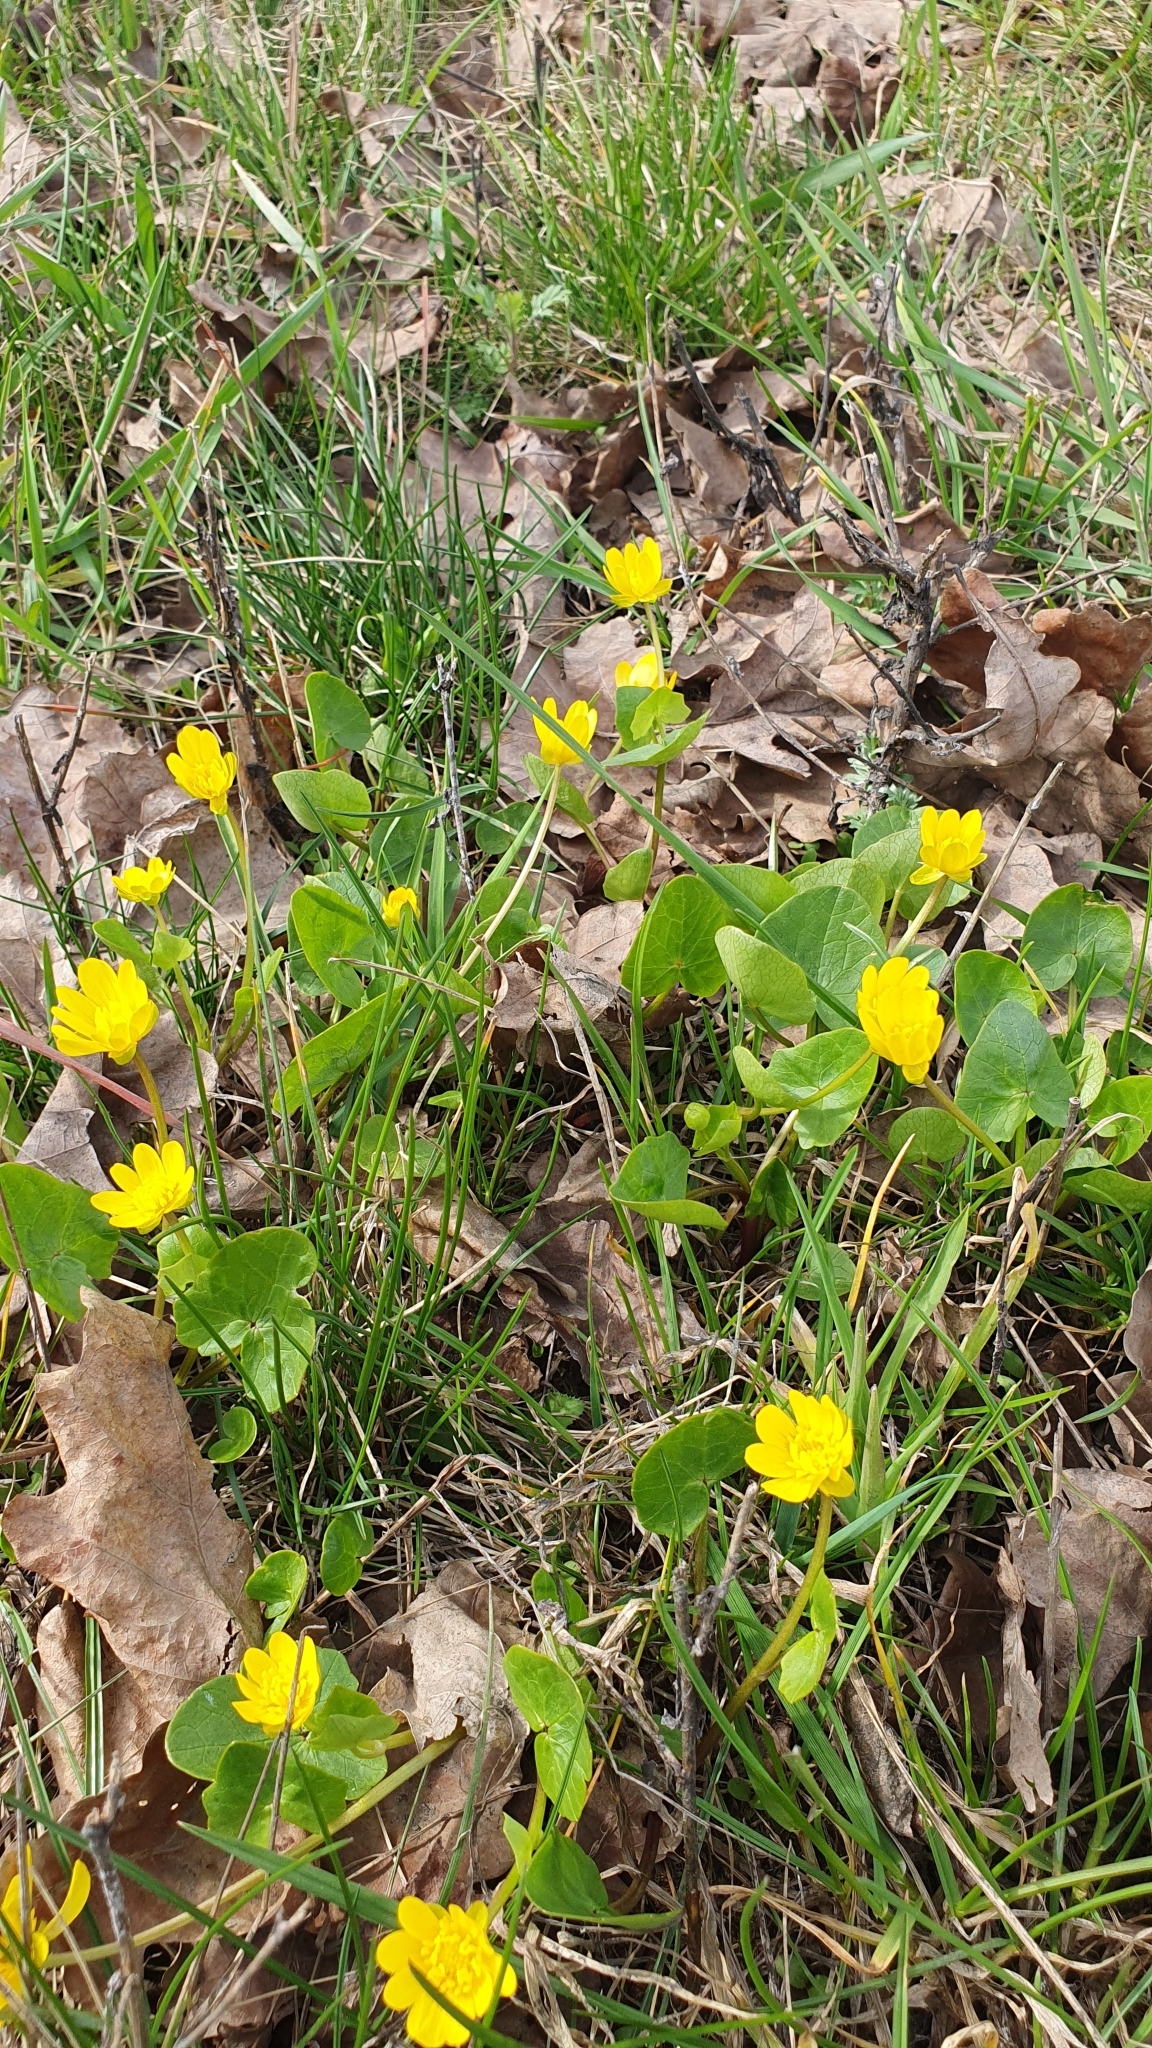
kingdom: Plantae
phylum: Tracheophyta
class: Magnoliopsida
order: Ranunculales
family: Ranunculaceae
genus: Ficaria
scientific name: Ficaria verna
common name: Lesser celandine
